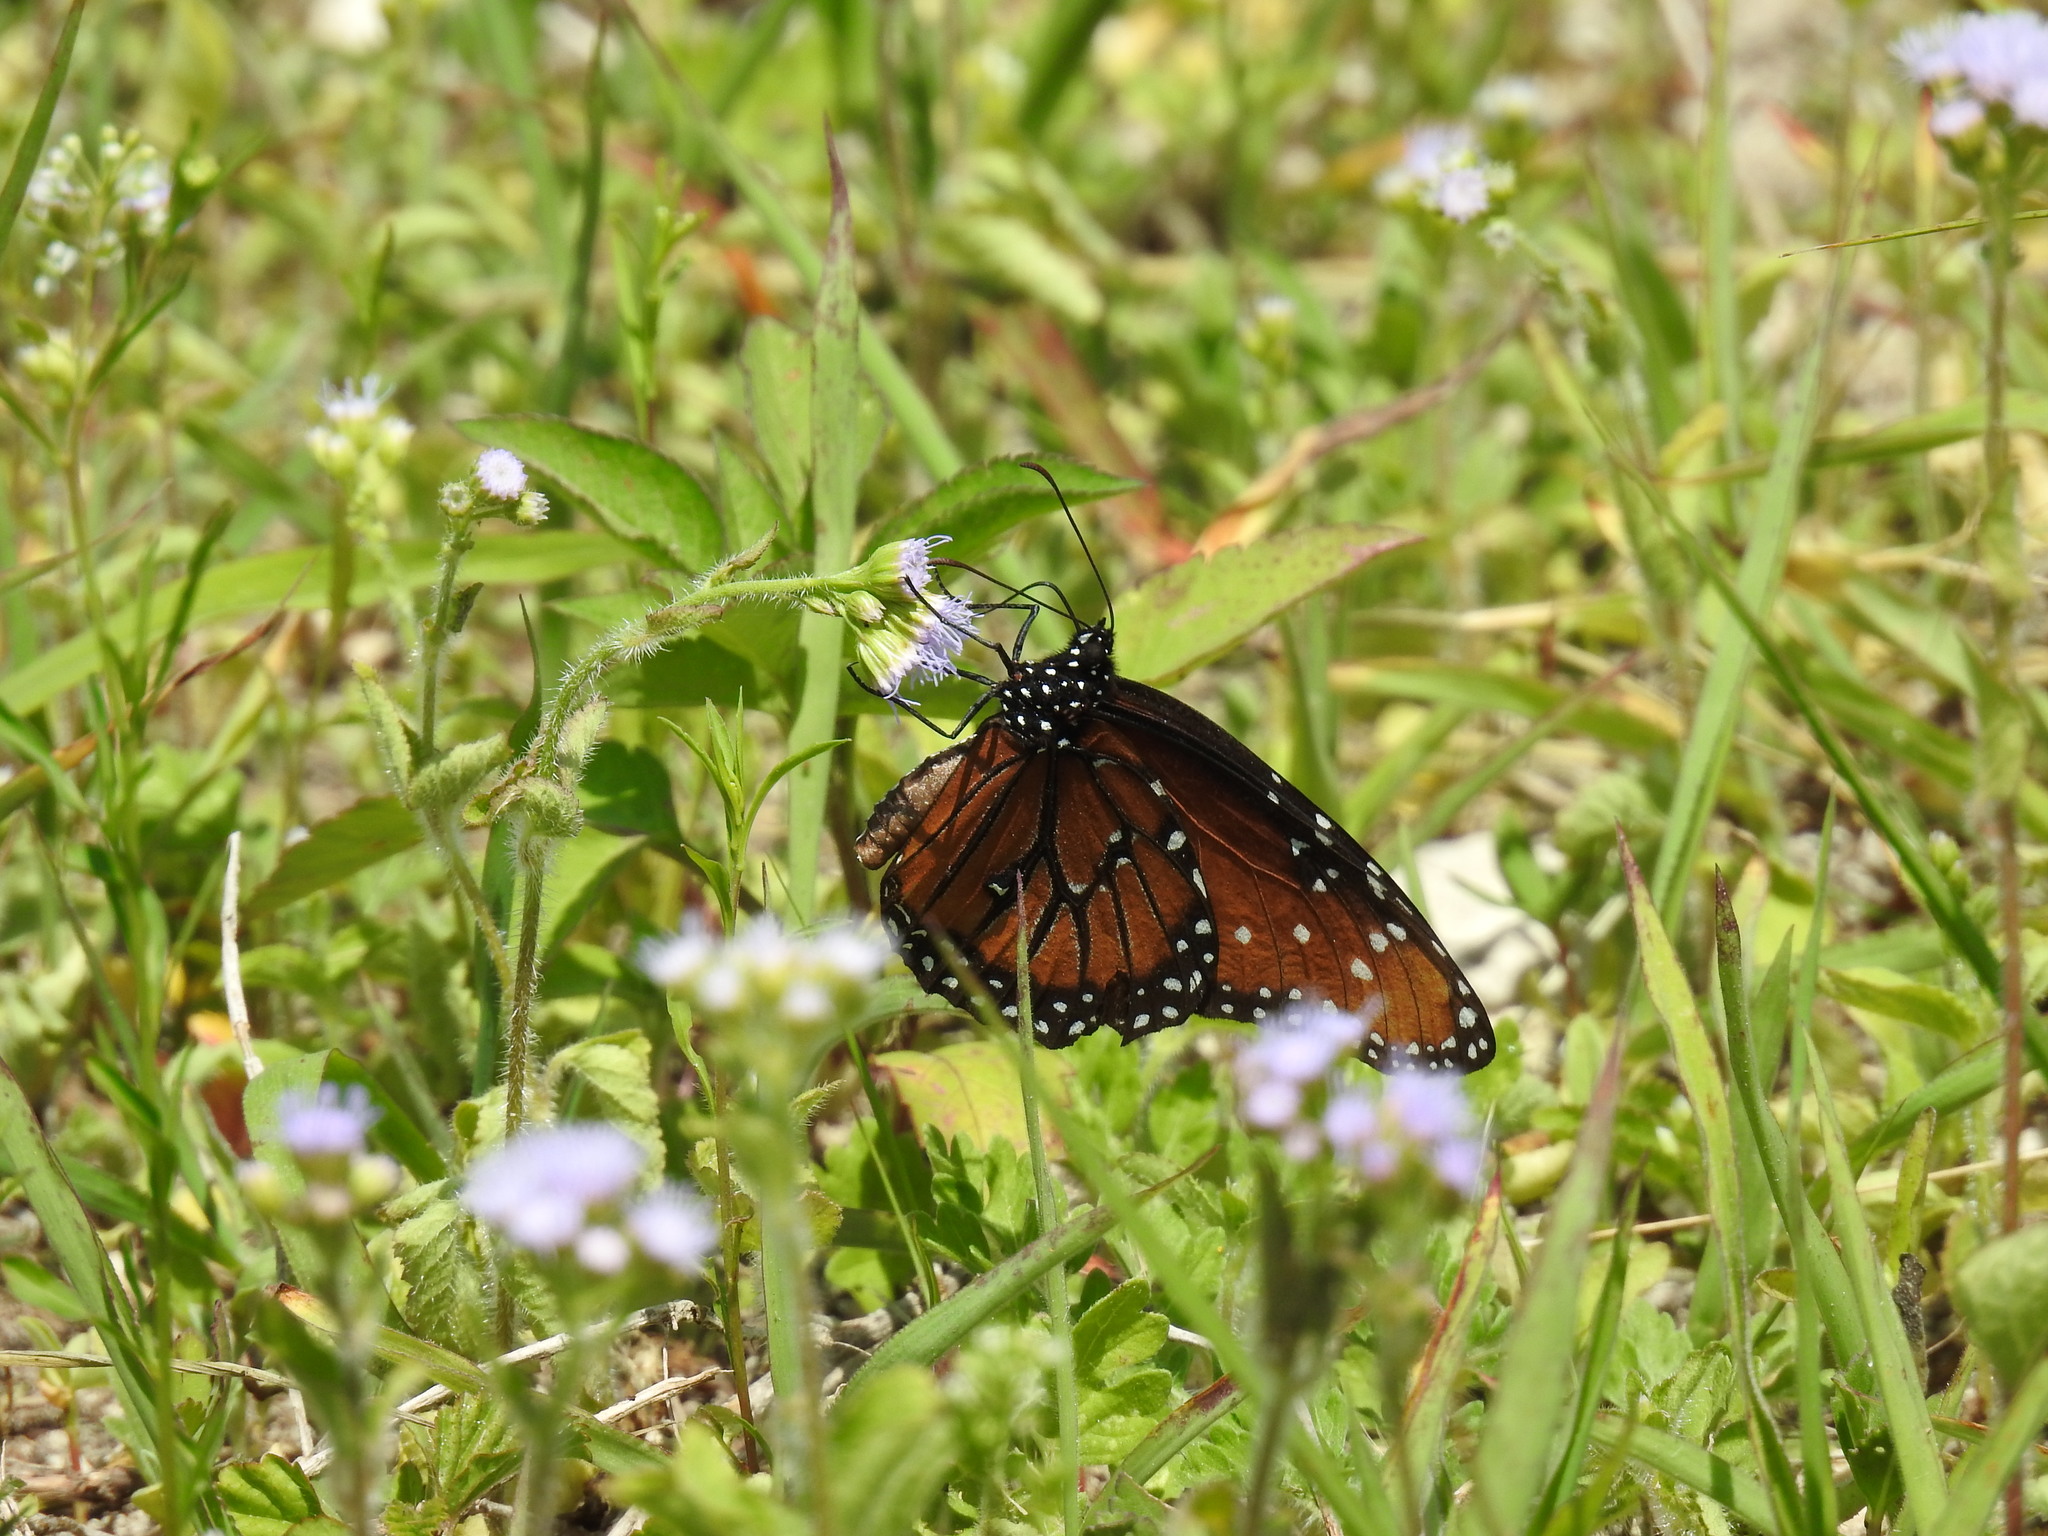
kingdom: Animalia
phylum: Arthropoda
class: Insecta
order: Lepidoptera
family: Nymphalidae
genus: Danaus
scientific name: Danaus gilippus
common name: Queen
